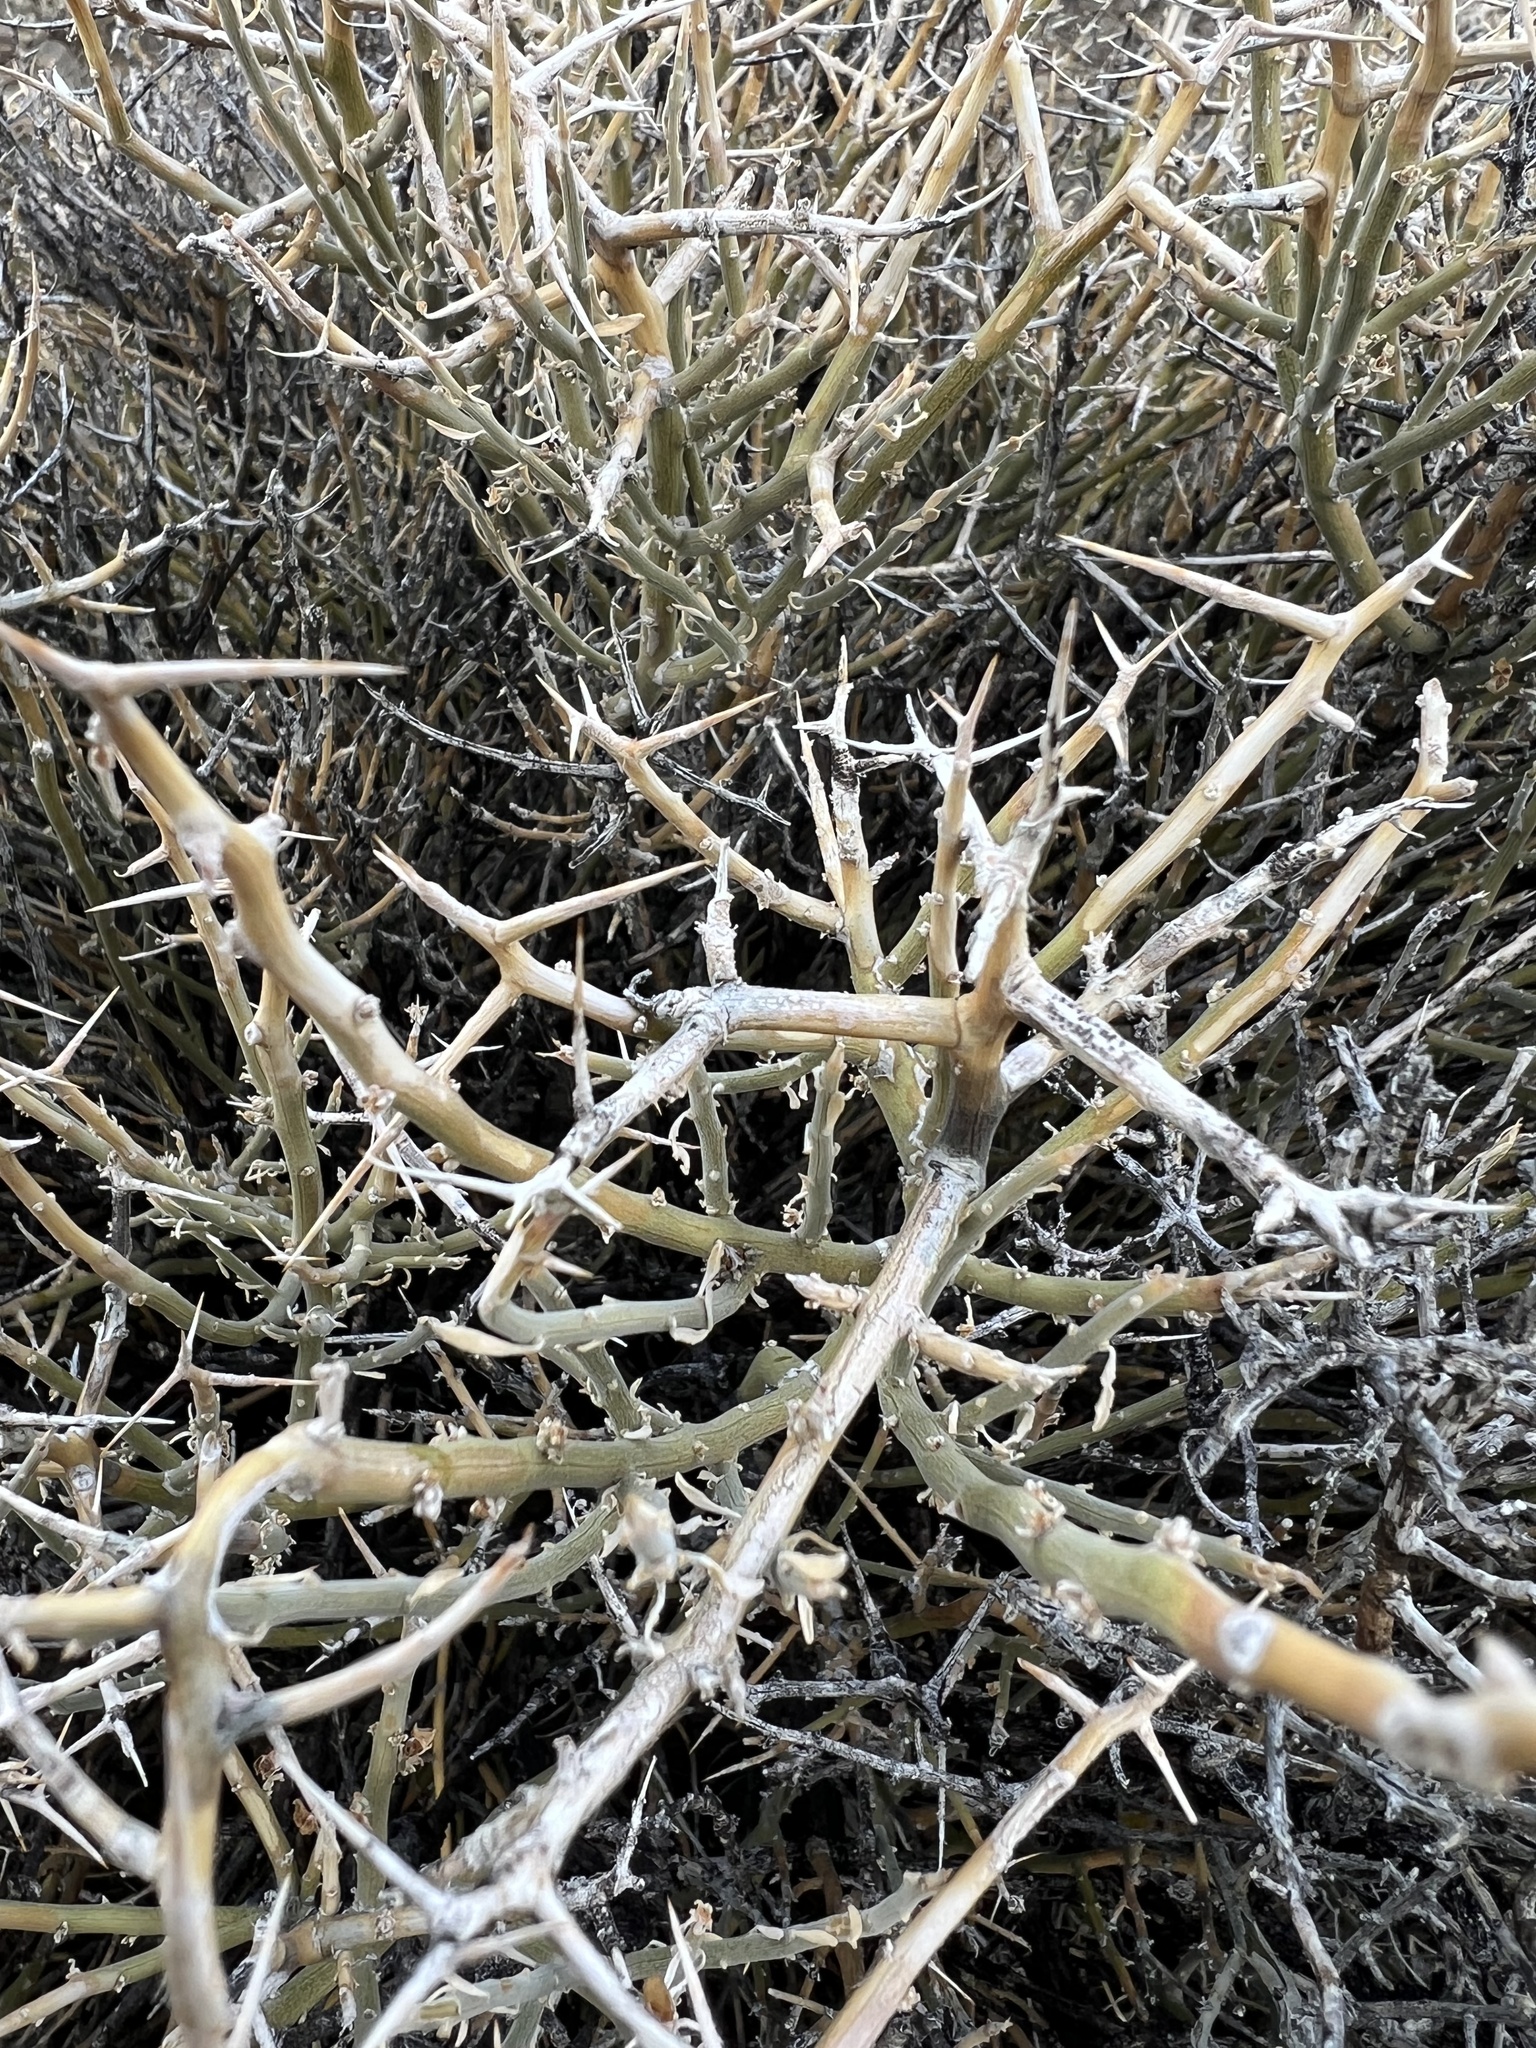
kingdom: Plantae
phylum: Tracheophyta
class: Magnoliopsida
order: Lamiales
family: Oleaceae
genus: Menodora
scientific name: Menodora spinescens
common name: Spiny menodora
